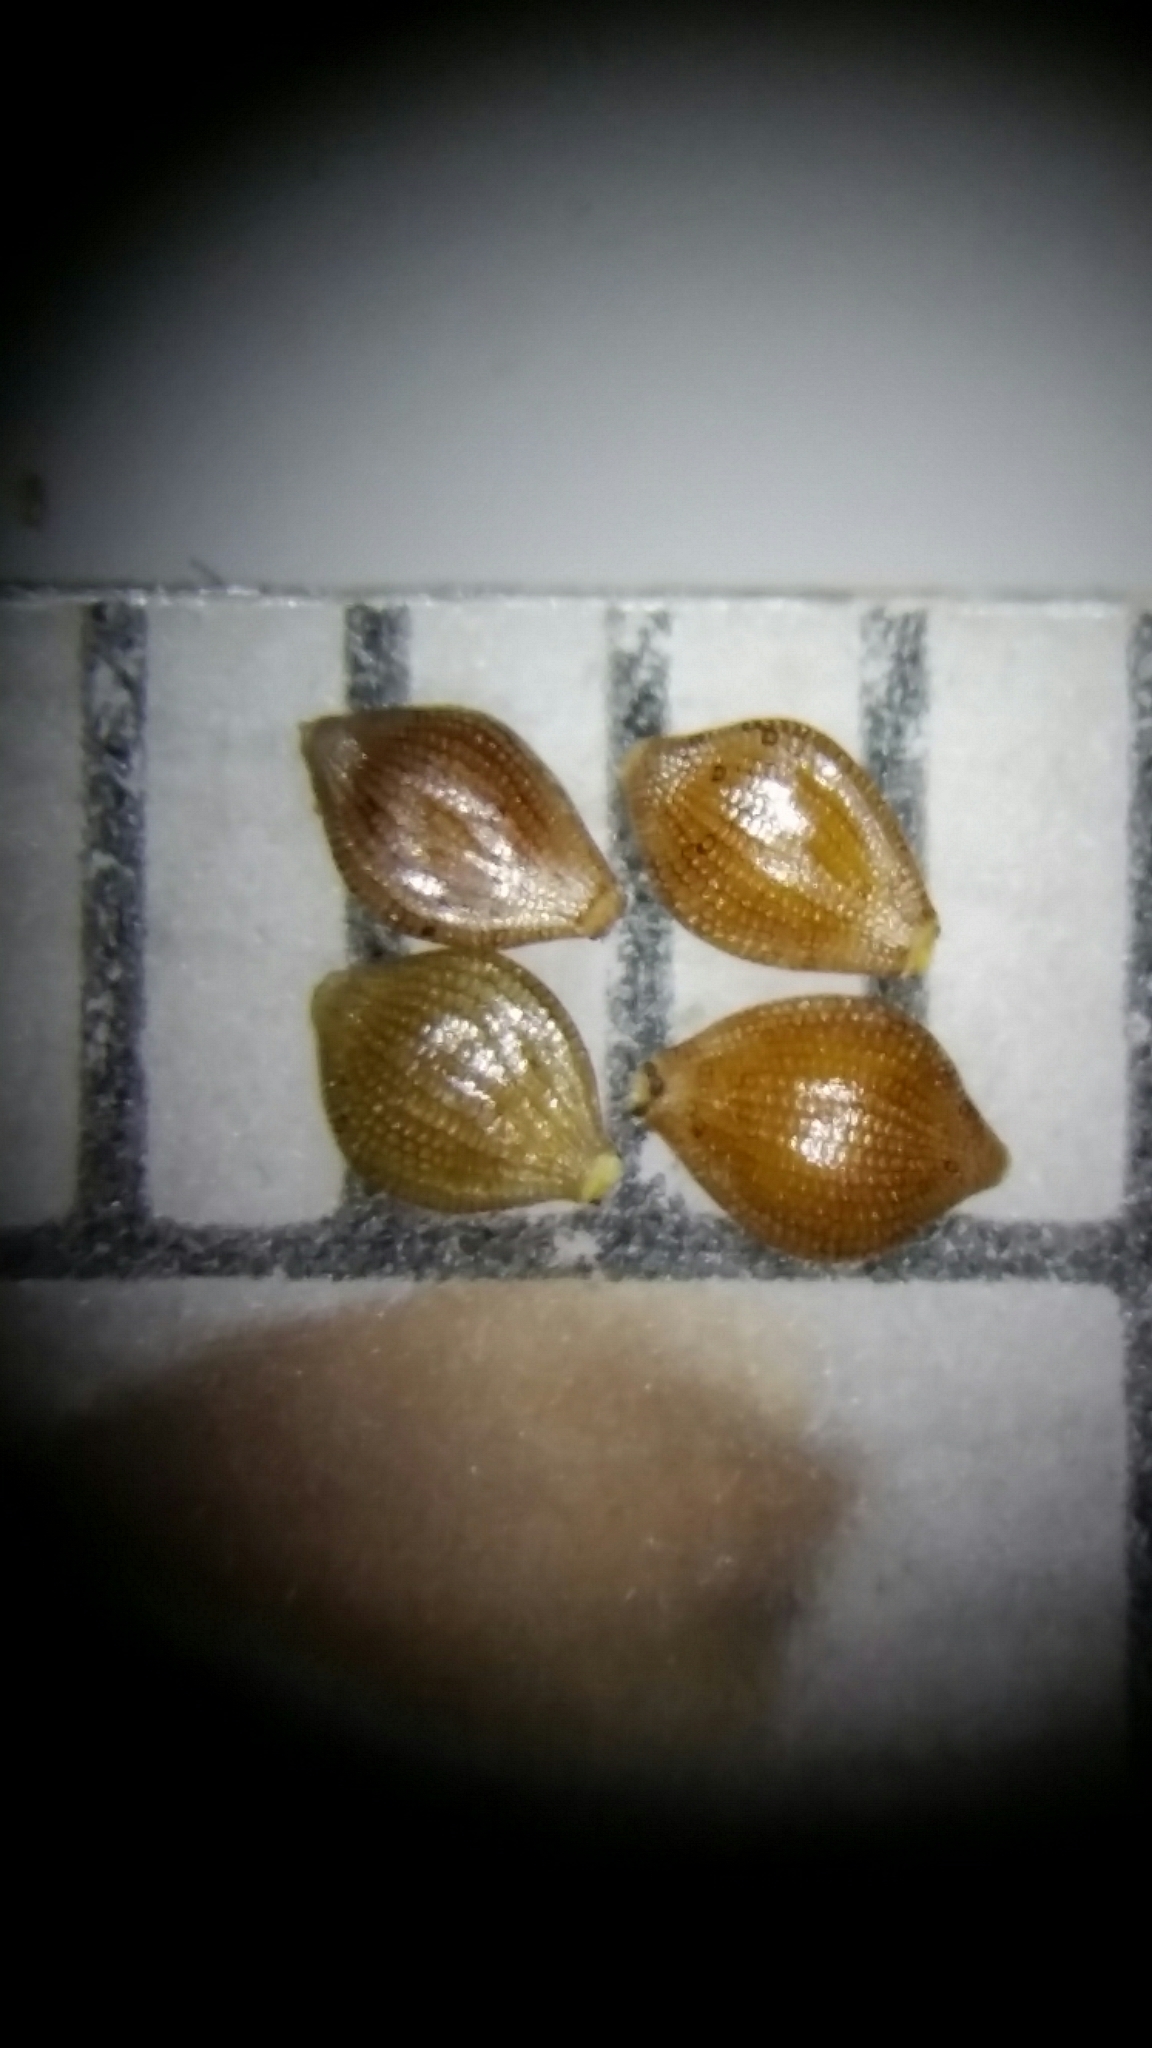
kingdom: Plantae
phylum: Tracheophyta
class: Liliopsida
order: Poales
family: Cyperaceae
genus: Fimbristylis
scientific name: Fimbristylis caroliniana
